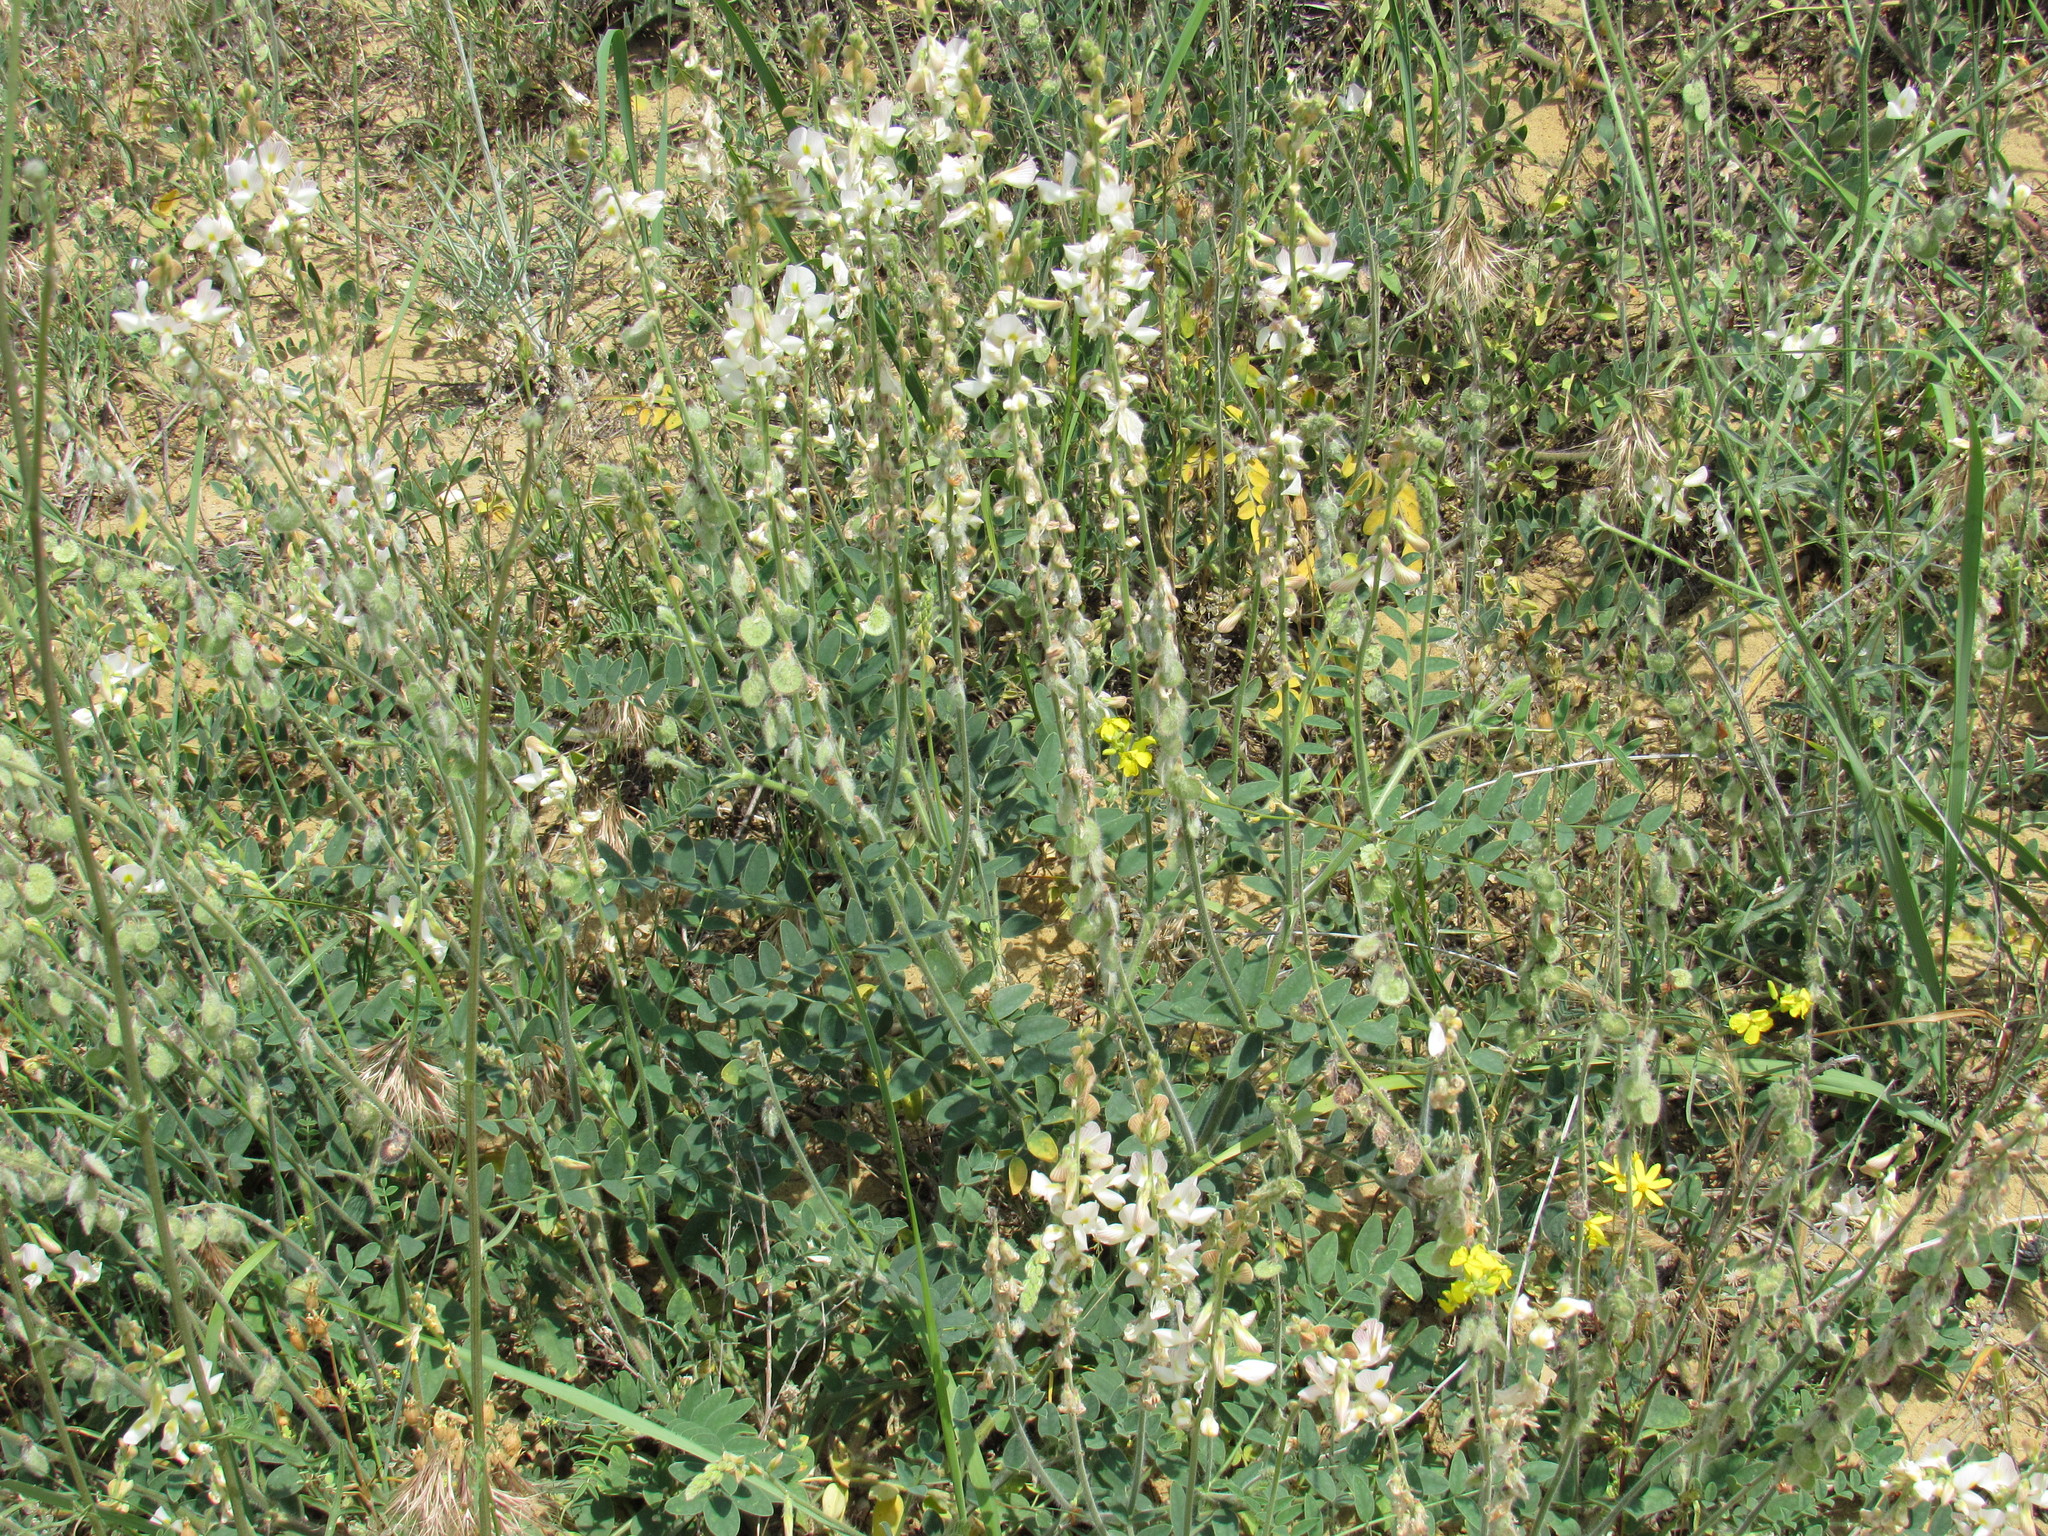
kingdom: Plantae
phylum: Tracheophyta
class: Magnoliopsida
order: Fabales
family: Fabaceae
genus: Onobrychis
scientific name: Onobrychis majorovii
